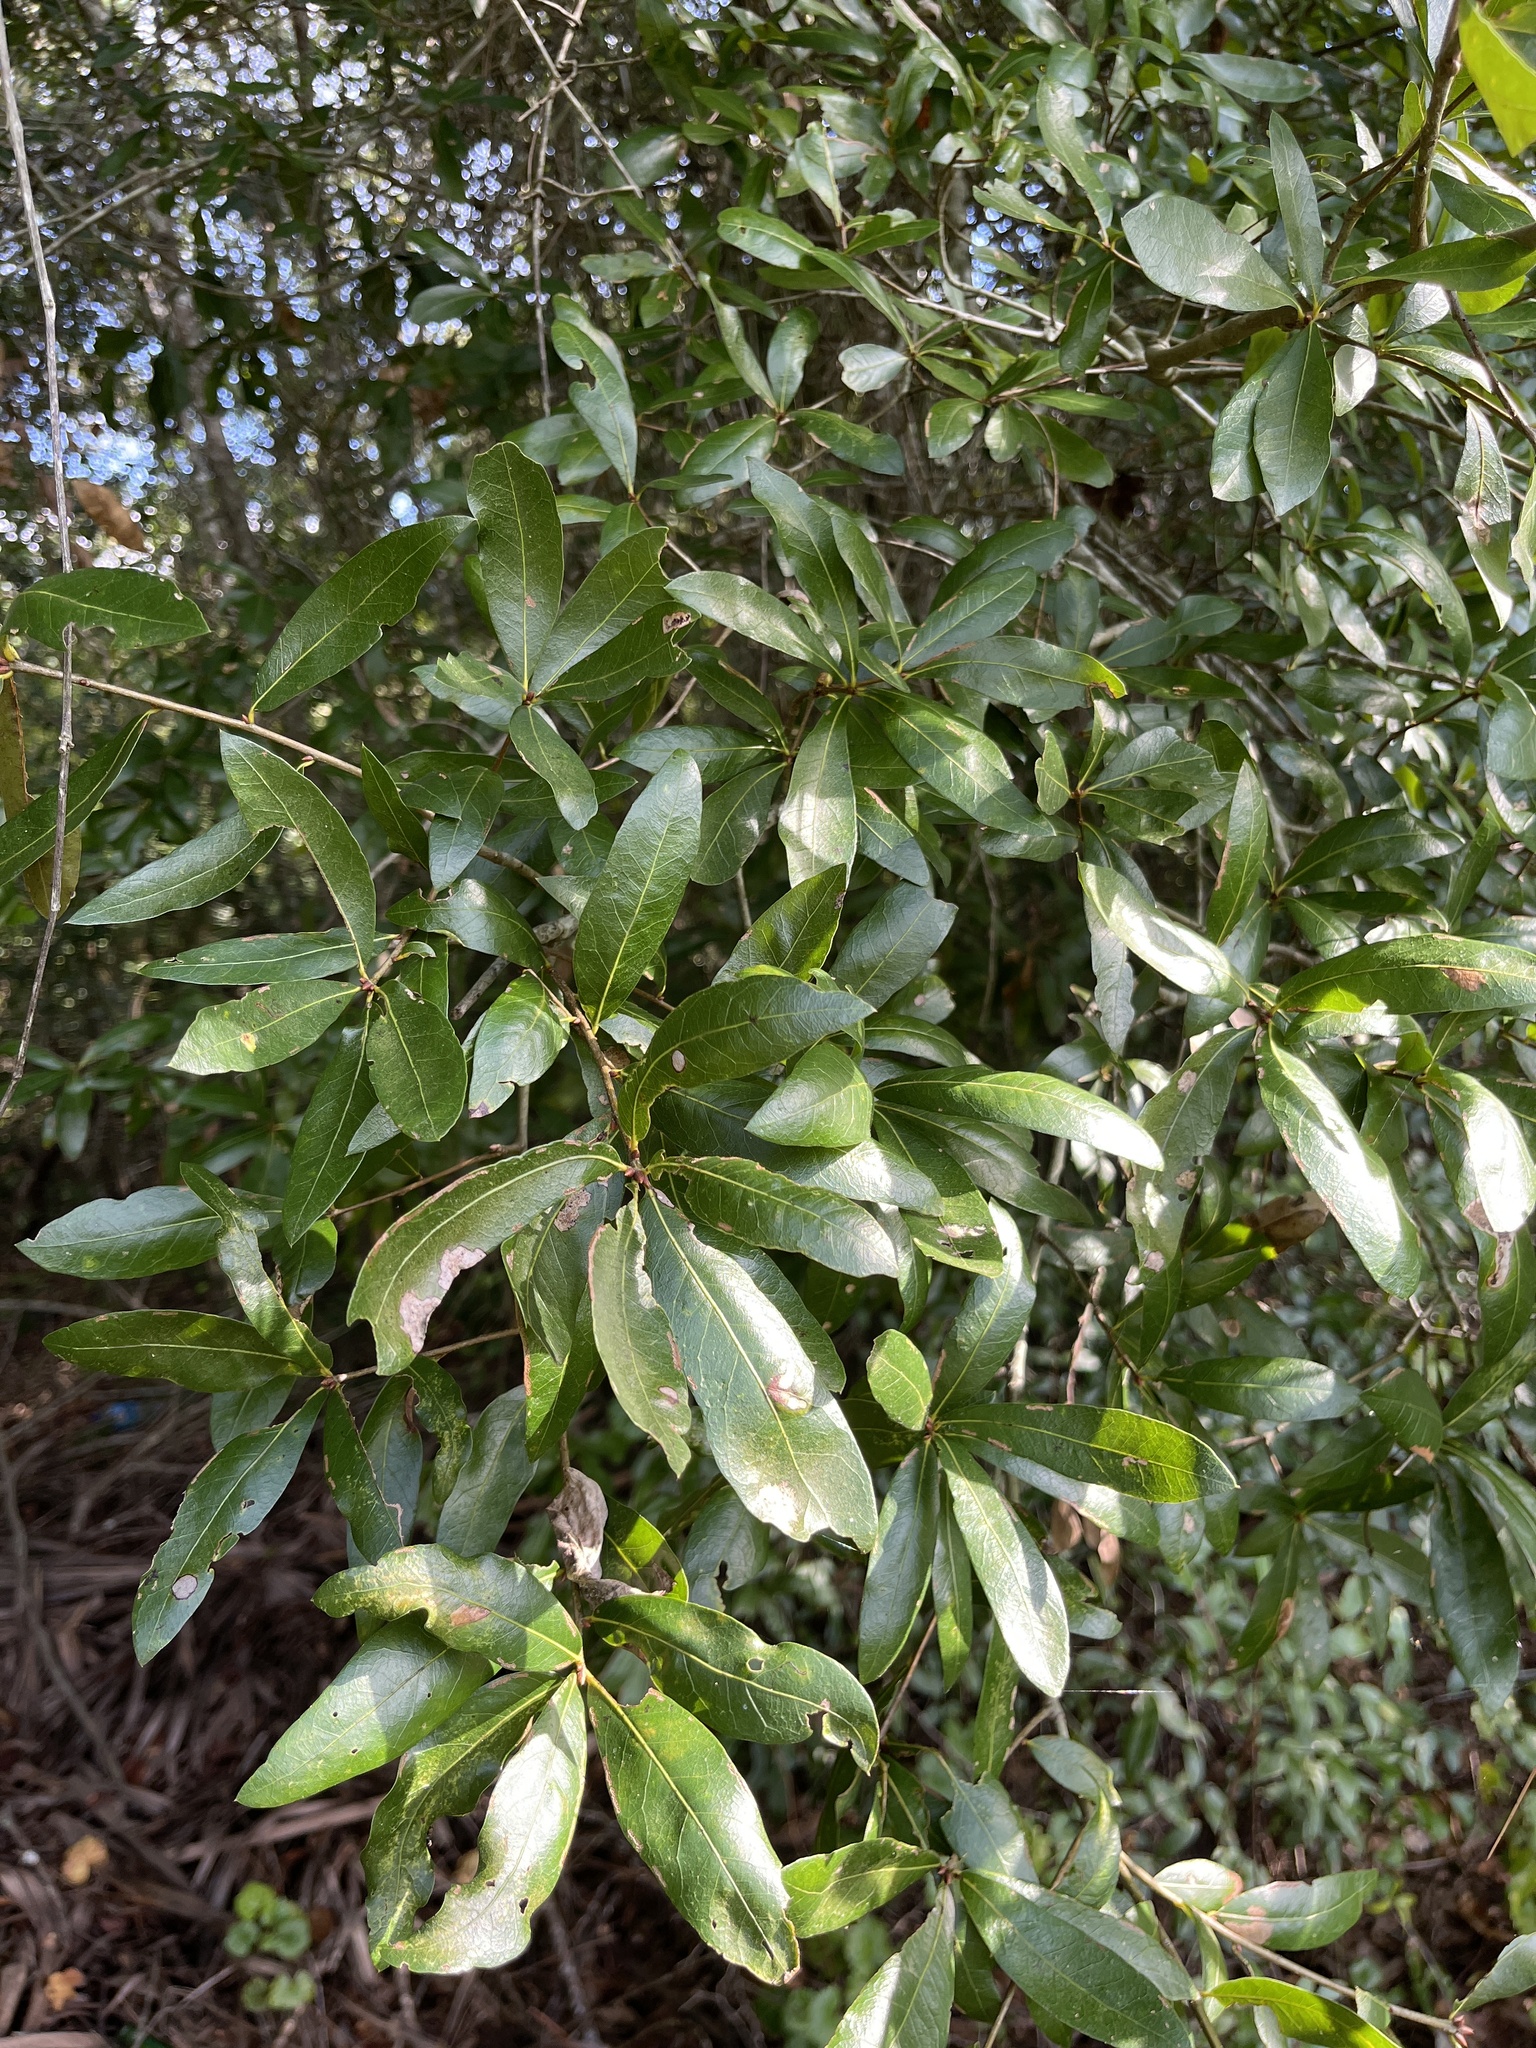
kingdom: Plantae
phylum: Tracheophyta
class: Magnoliopsida
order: Fagales
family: Fagaceae
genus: Quercus
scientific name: Quercus hemisphaerica
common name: Darlington oak
